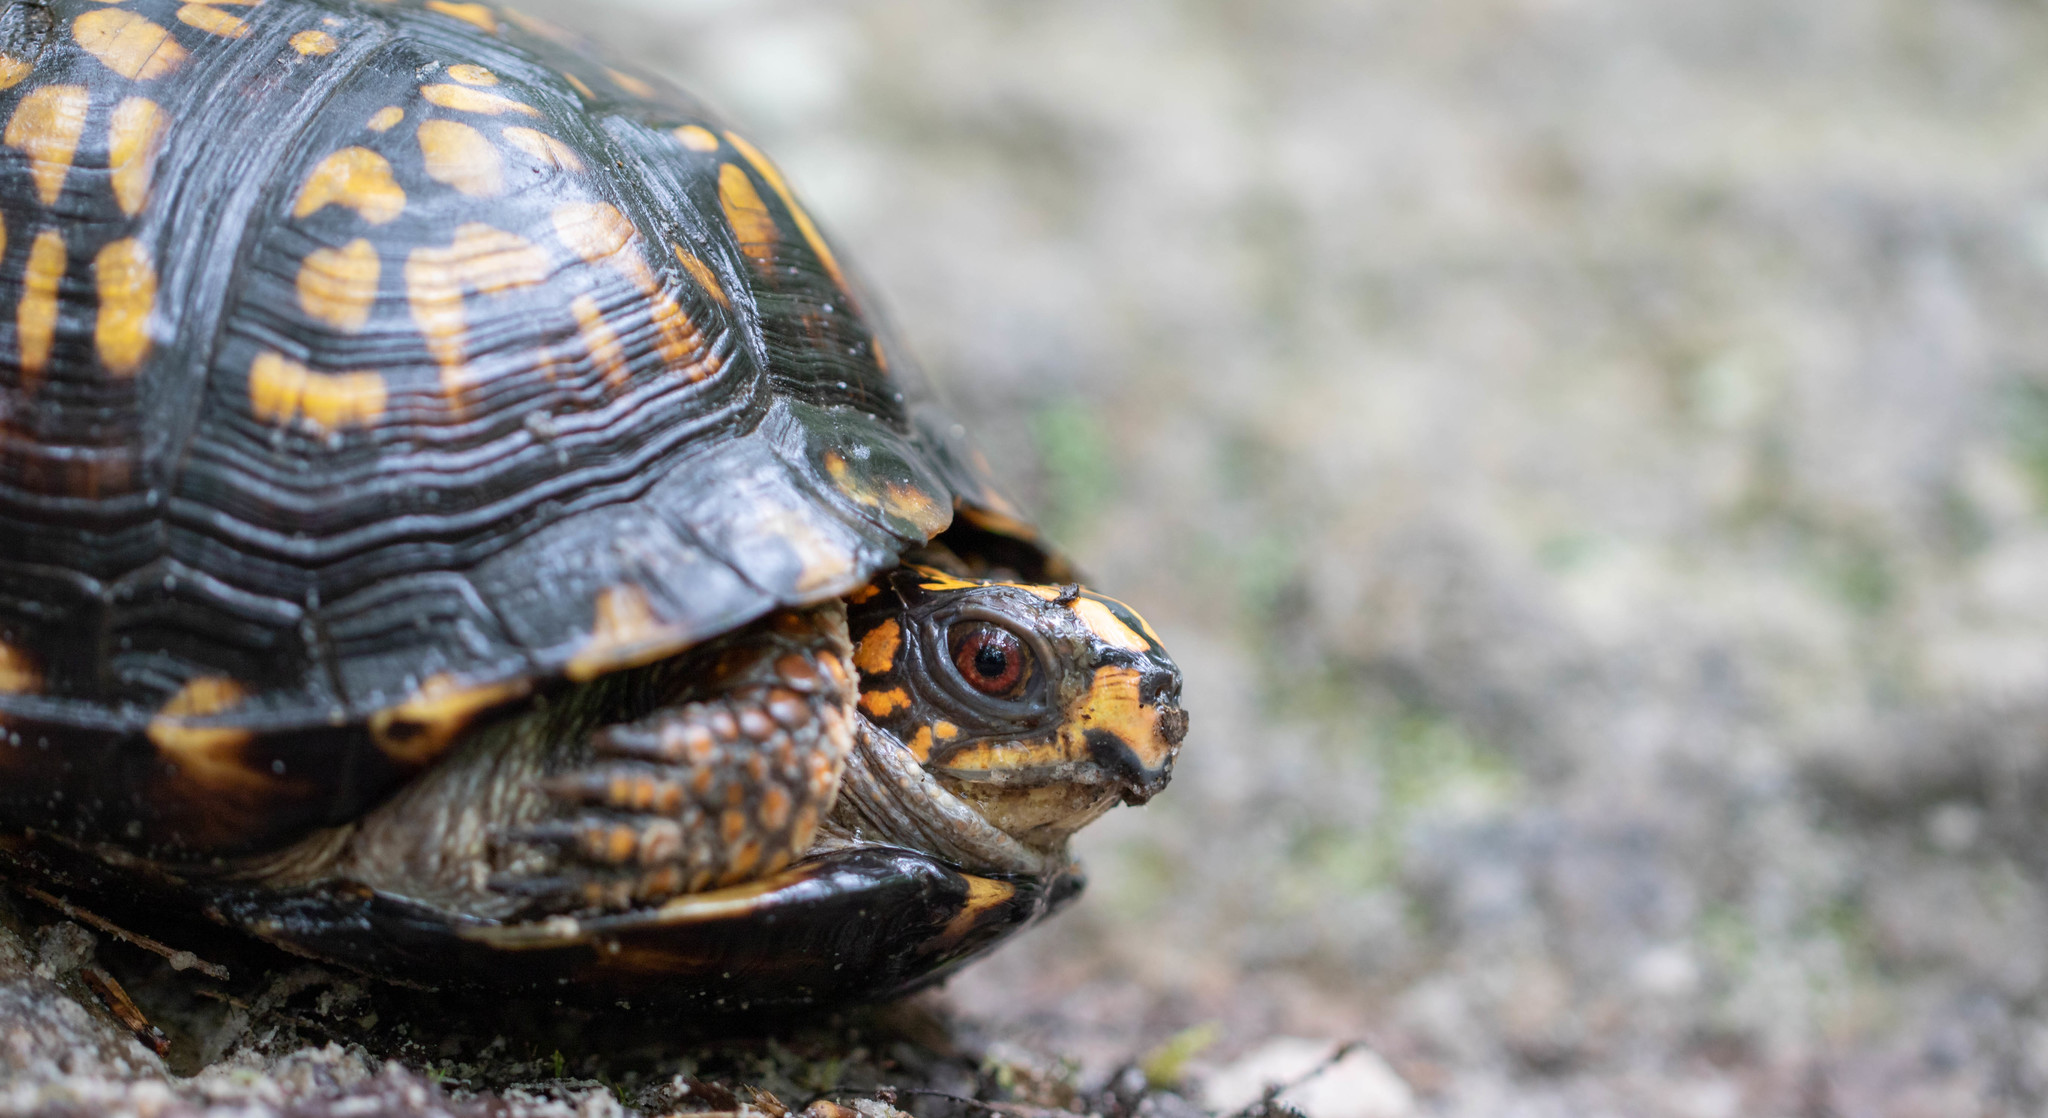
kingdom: Animalia
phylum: Chordata
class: Testudines
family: Emydidae
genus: Terrapene
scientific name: Terrapene carolina
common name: Common box turtle
